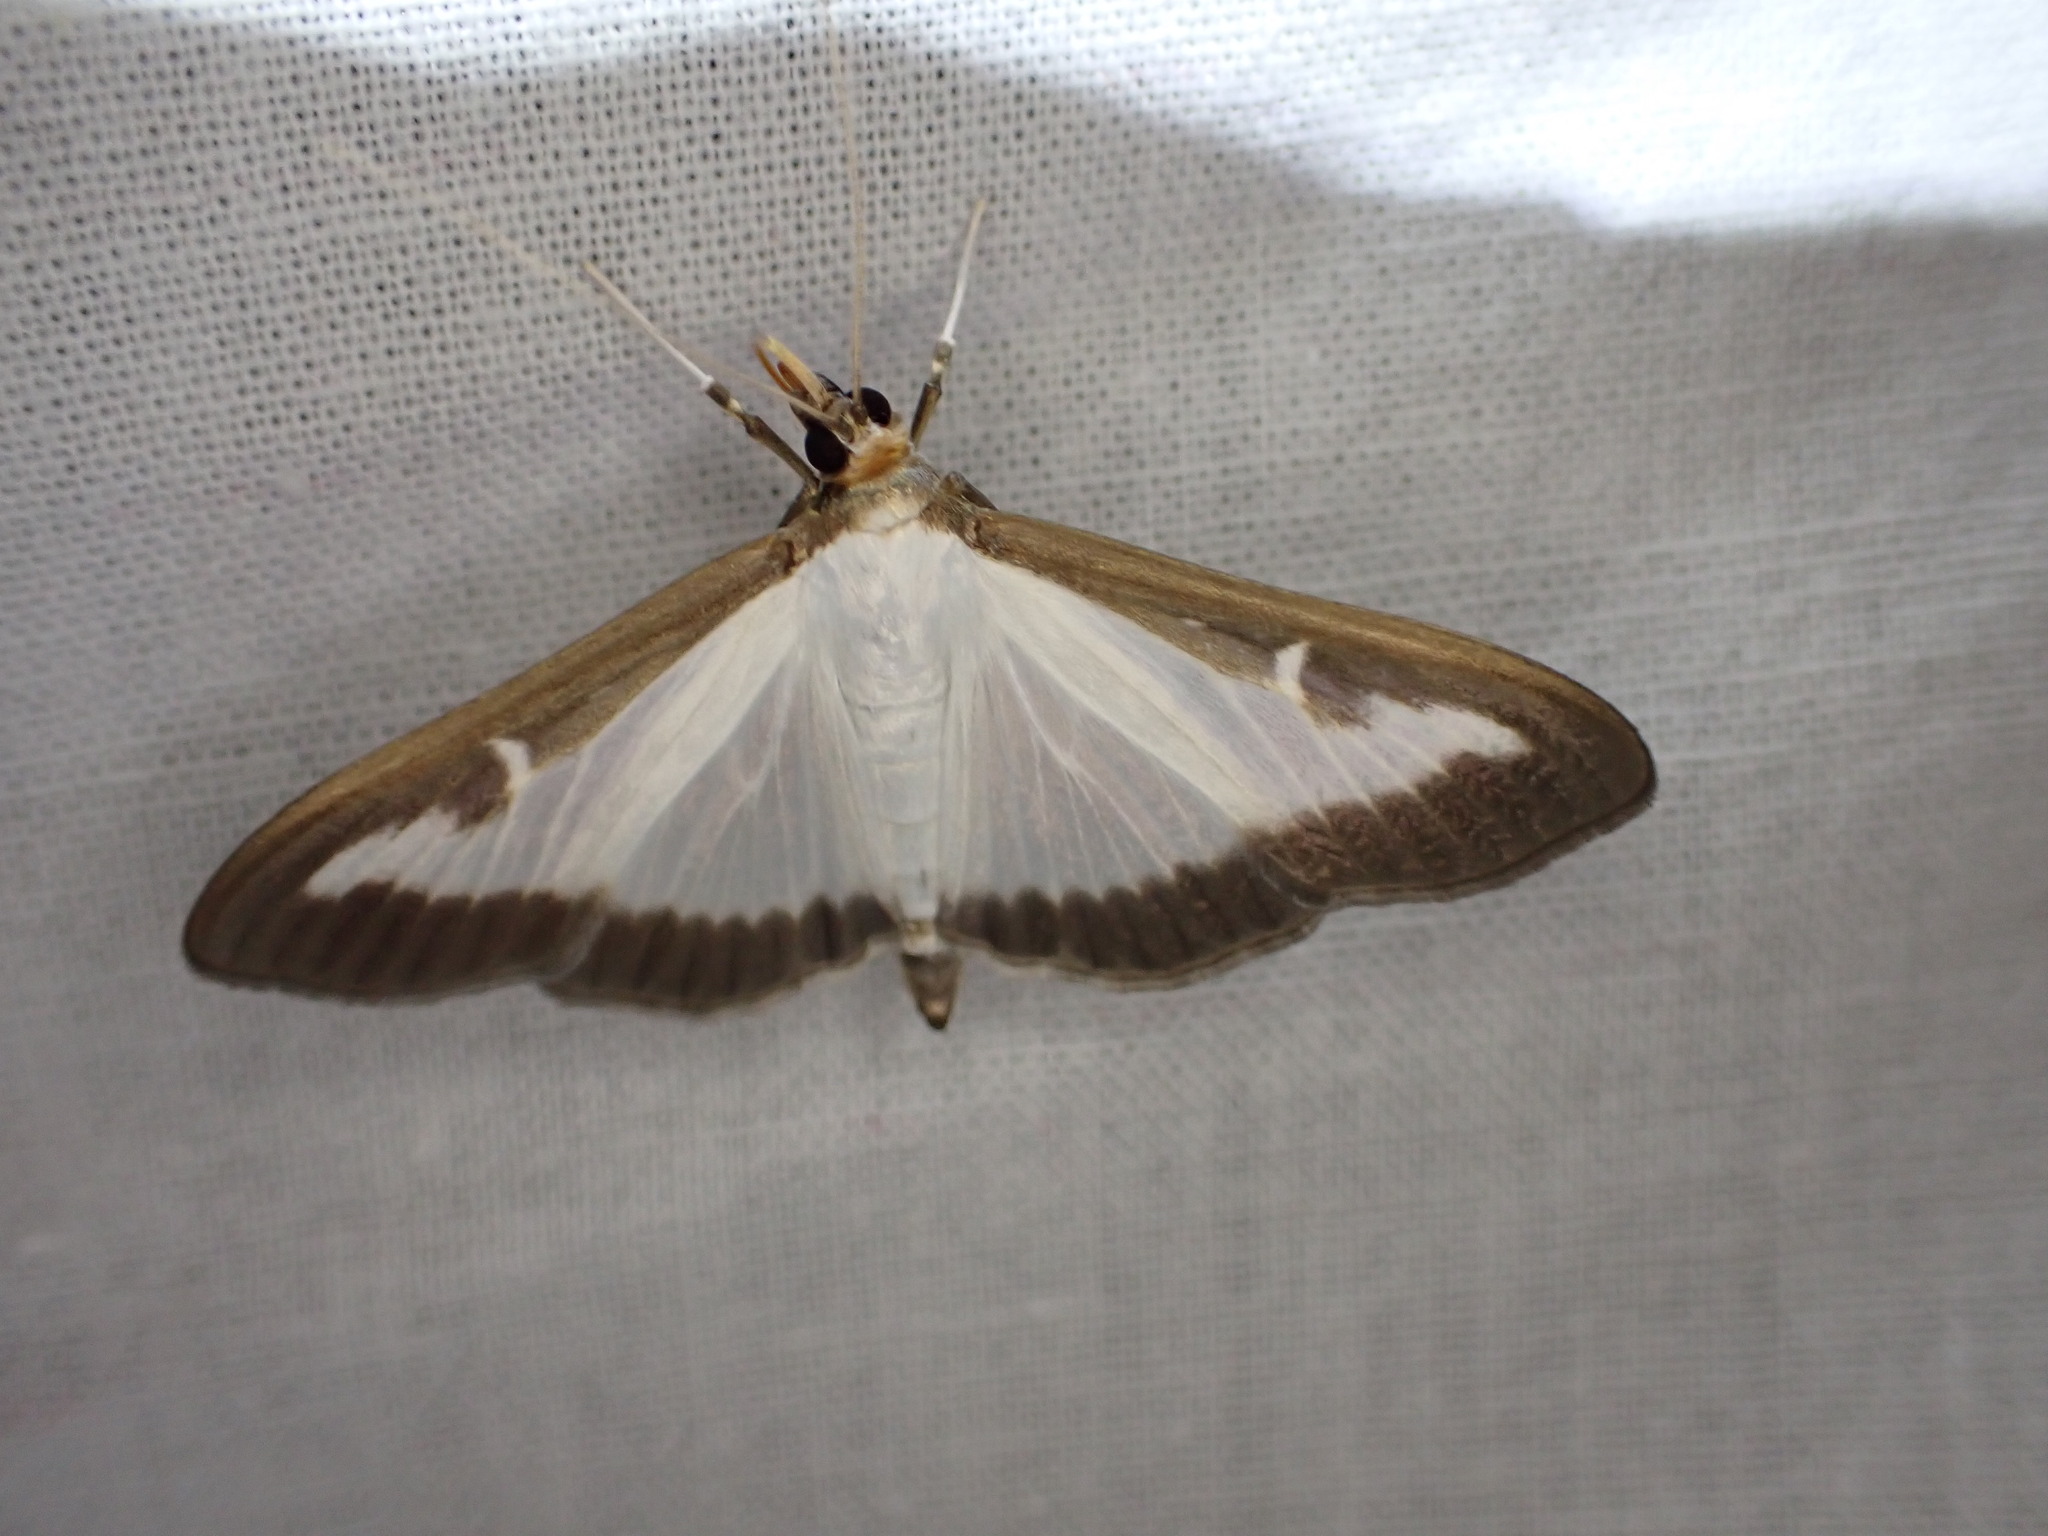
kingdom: Animalia
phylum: Arthropoda
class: Insecta
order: Lepidoptera
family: Crambidae
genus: Cydalima
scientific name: Cydalima perspectalis
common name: Box tree moth
